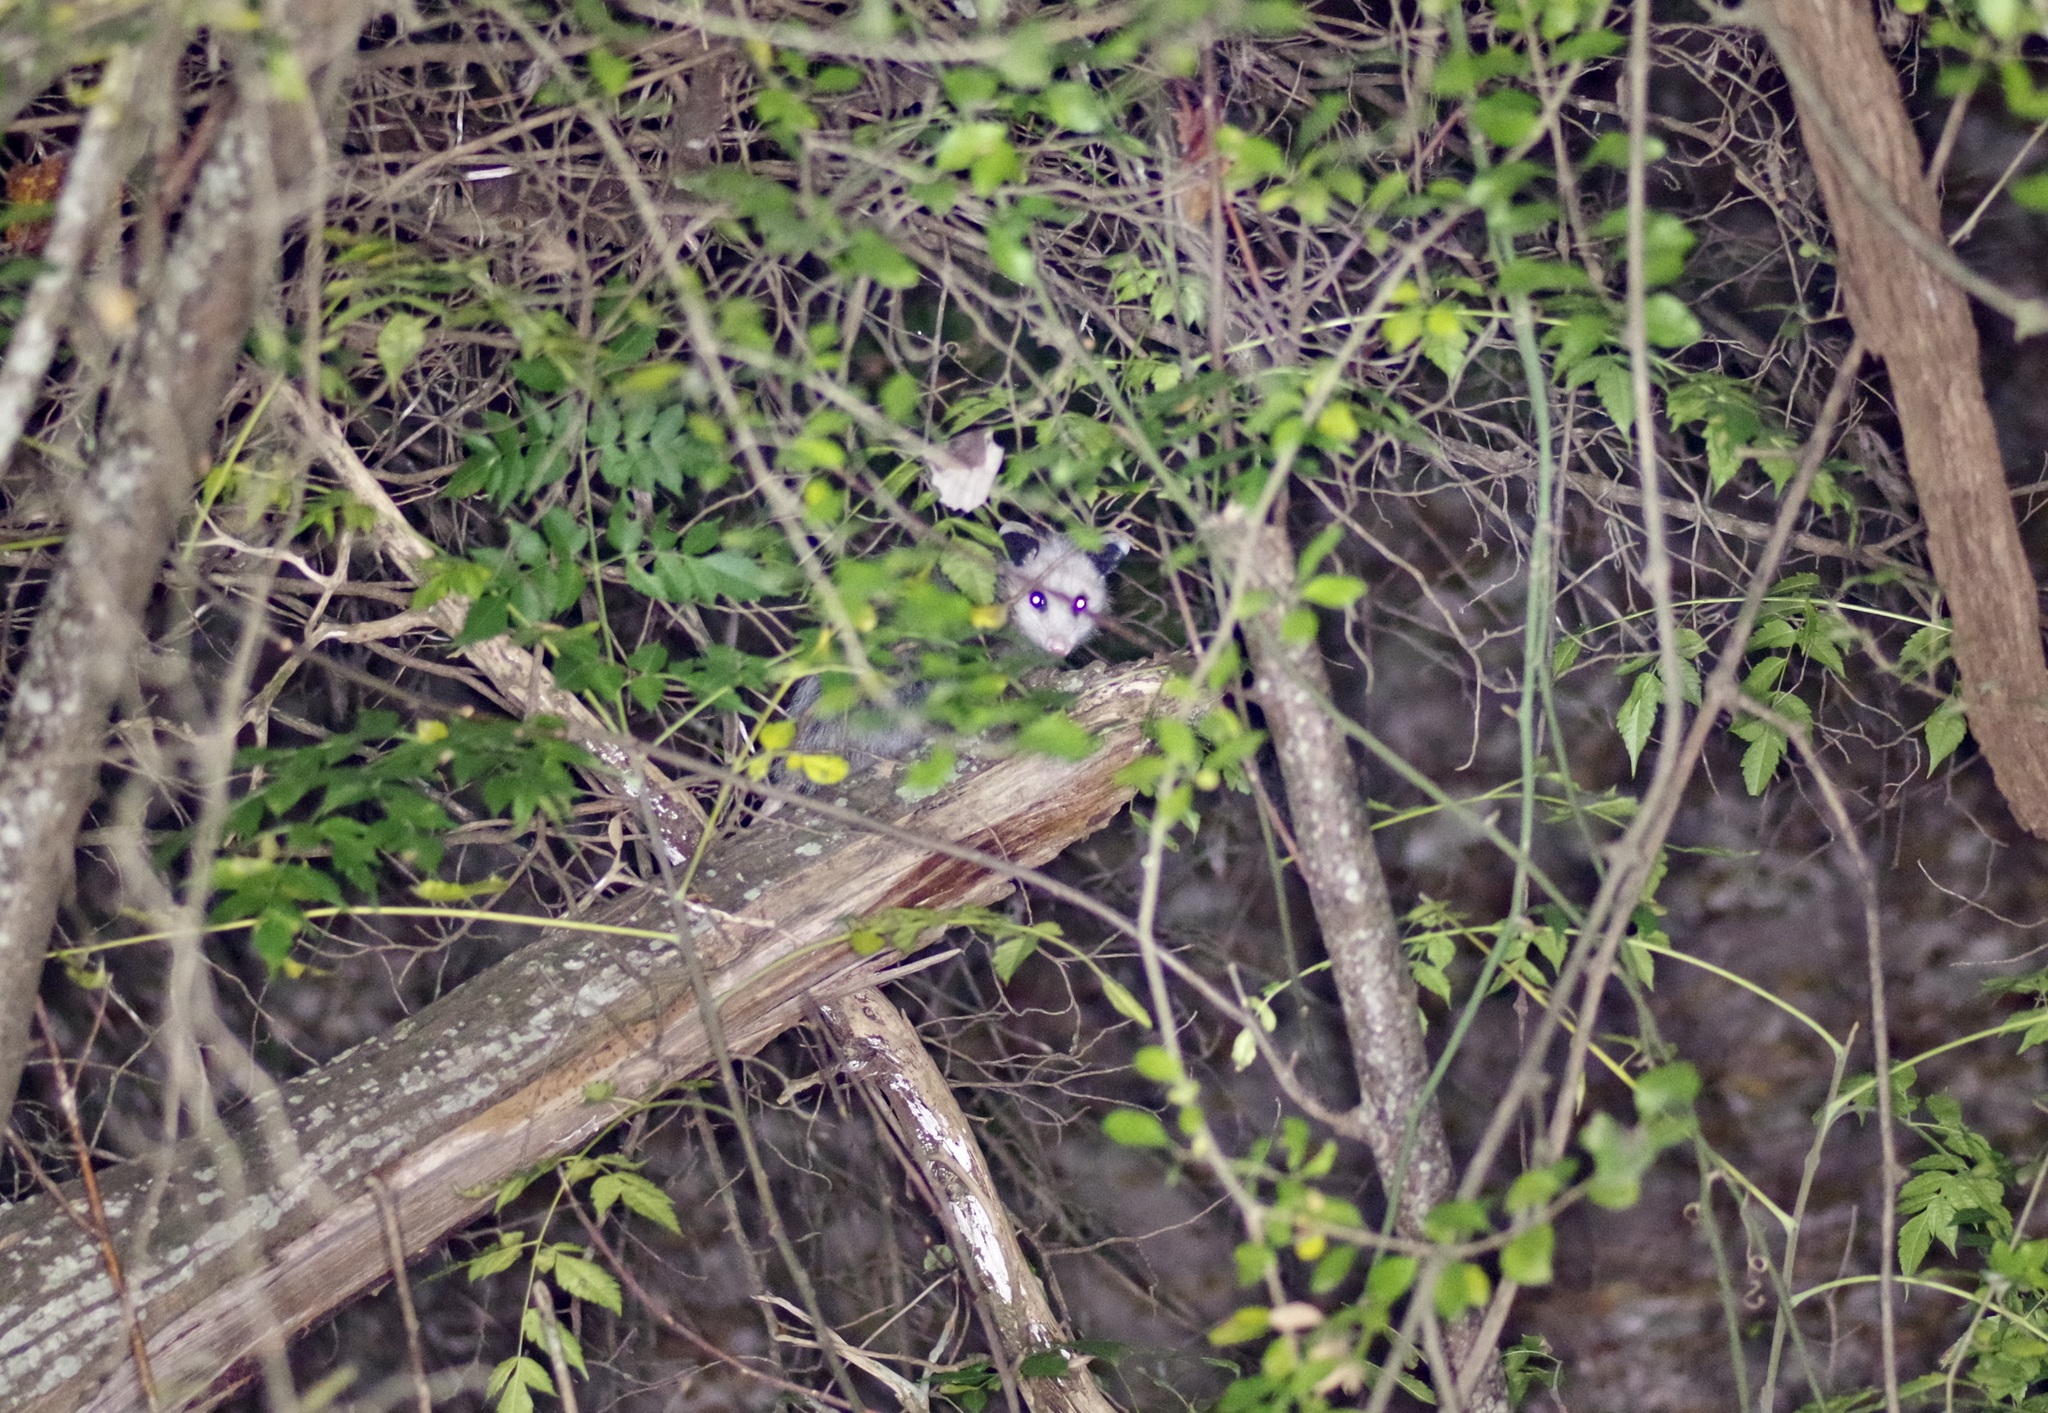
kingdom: Animalia
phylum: Chordata
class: Mammalia
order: Didelphimorphia
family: Didelphidae
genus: Didelphis
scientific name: Didelphis virginiana
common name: Virginia opossum
